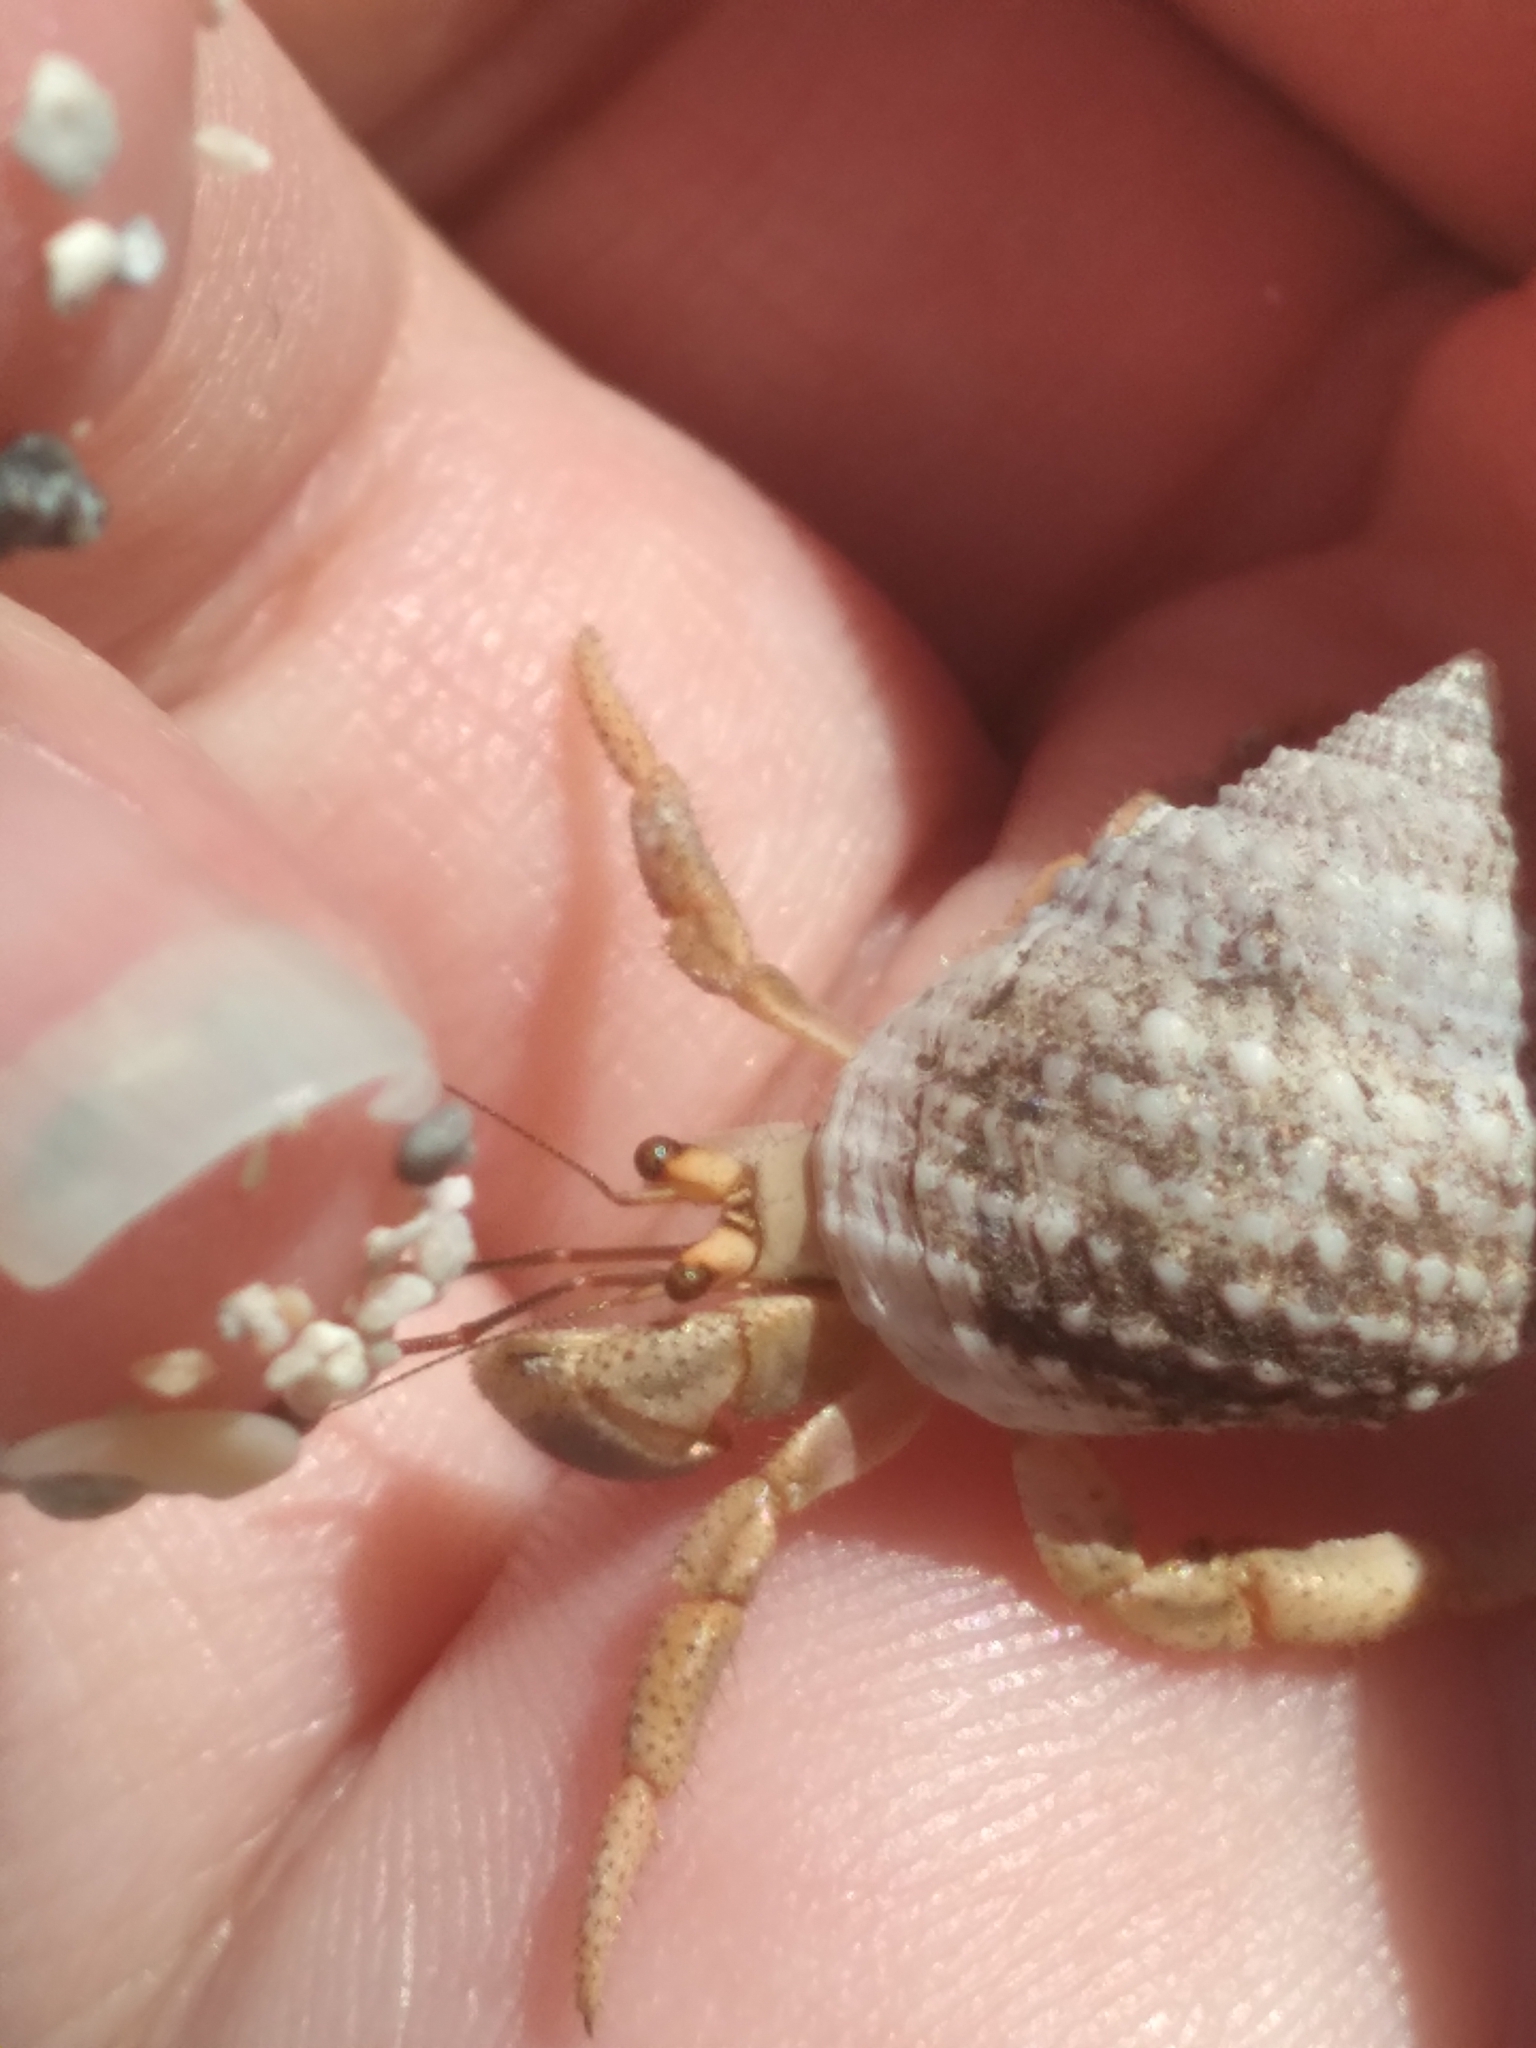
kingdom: Animalia
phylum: Arthropoda
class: Malacostraca
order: Decapoda
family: Coenobitidae
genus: Coenobita
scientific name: Coenobita clypeatus
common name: Caribbean hermit crab
